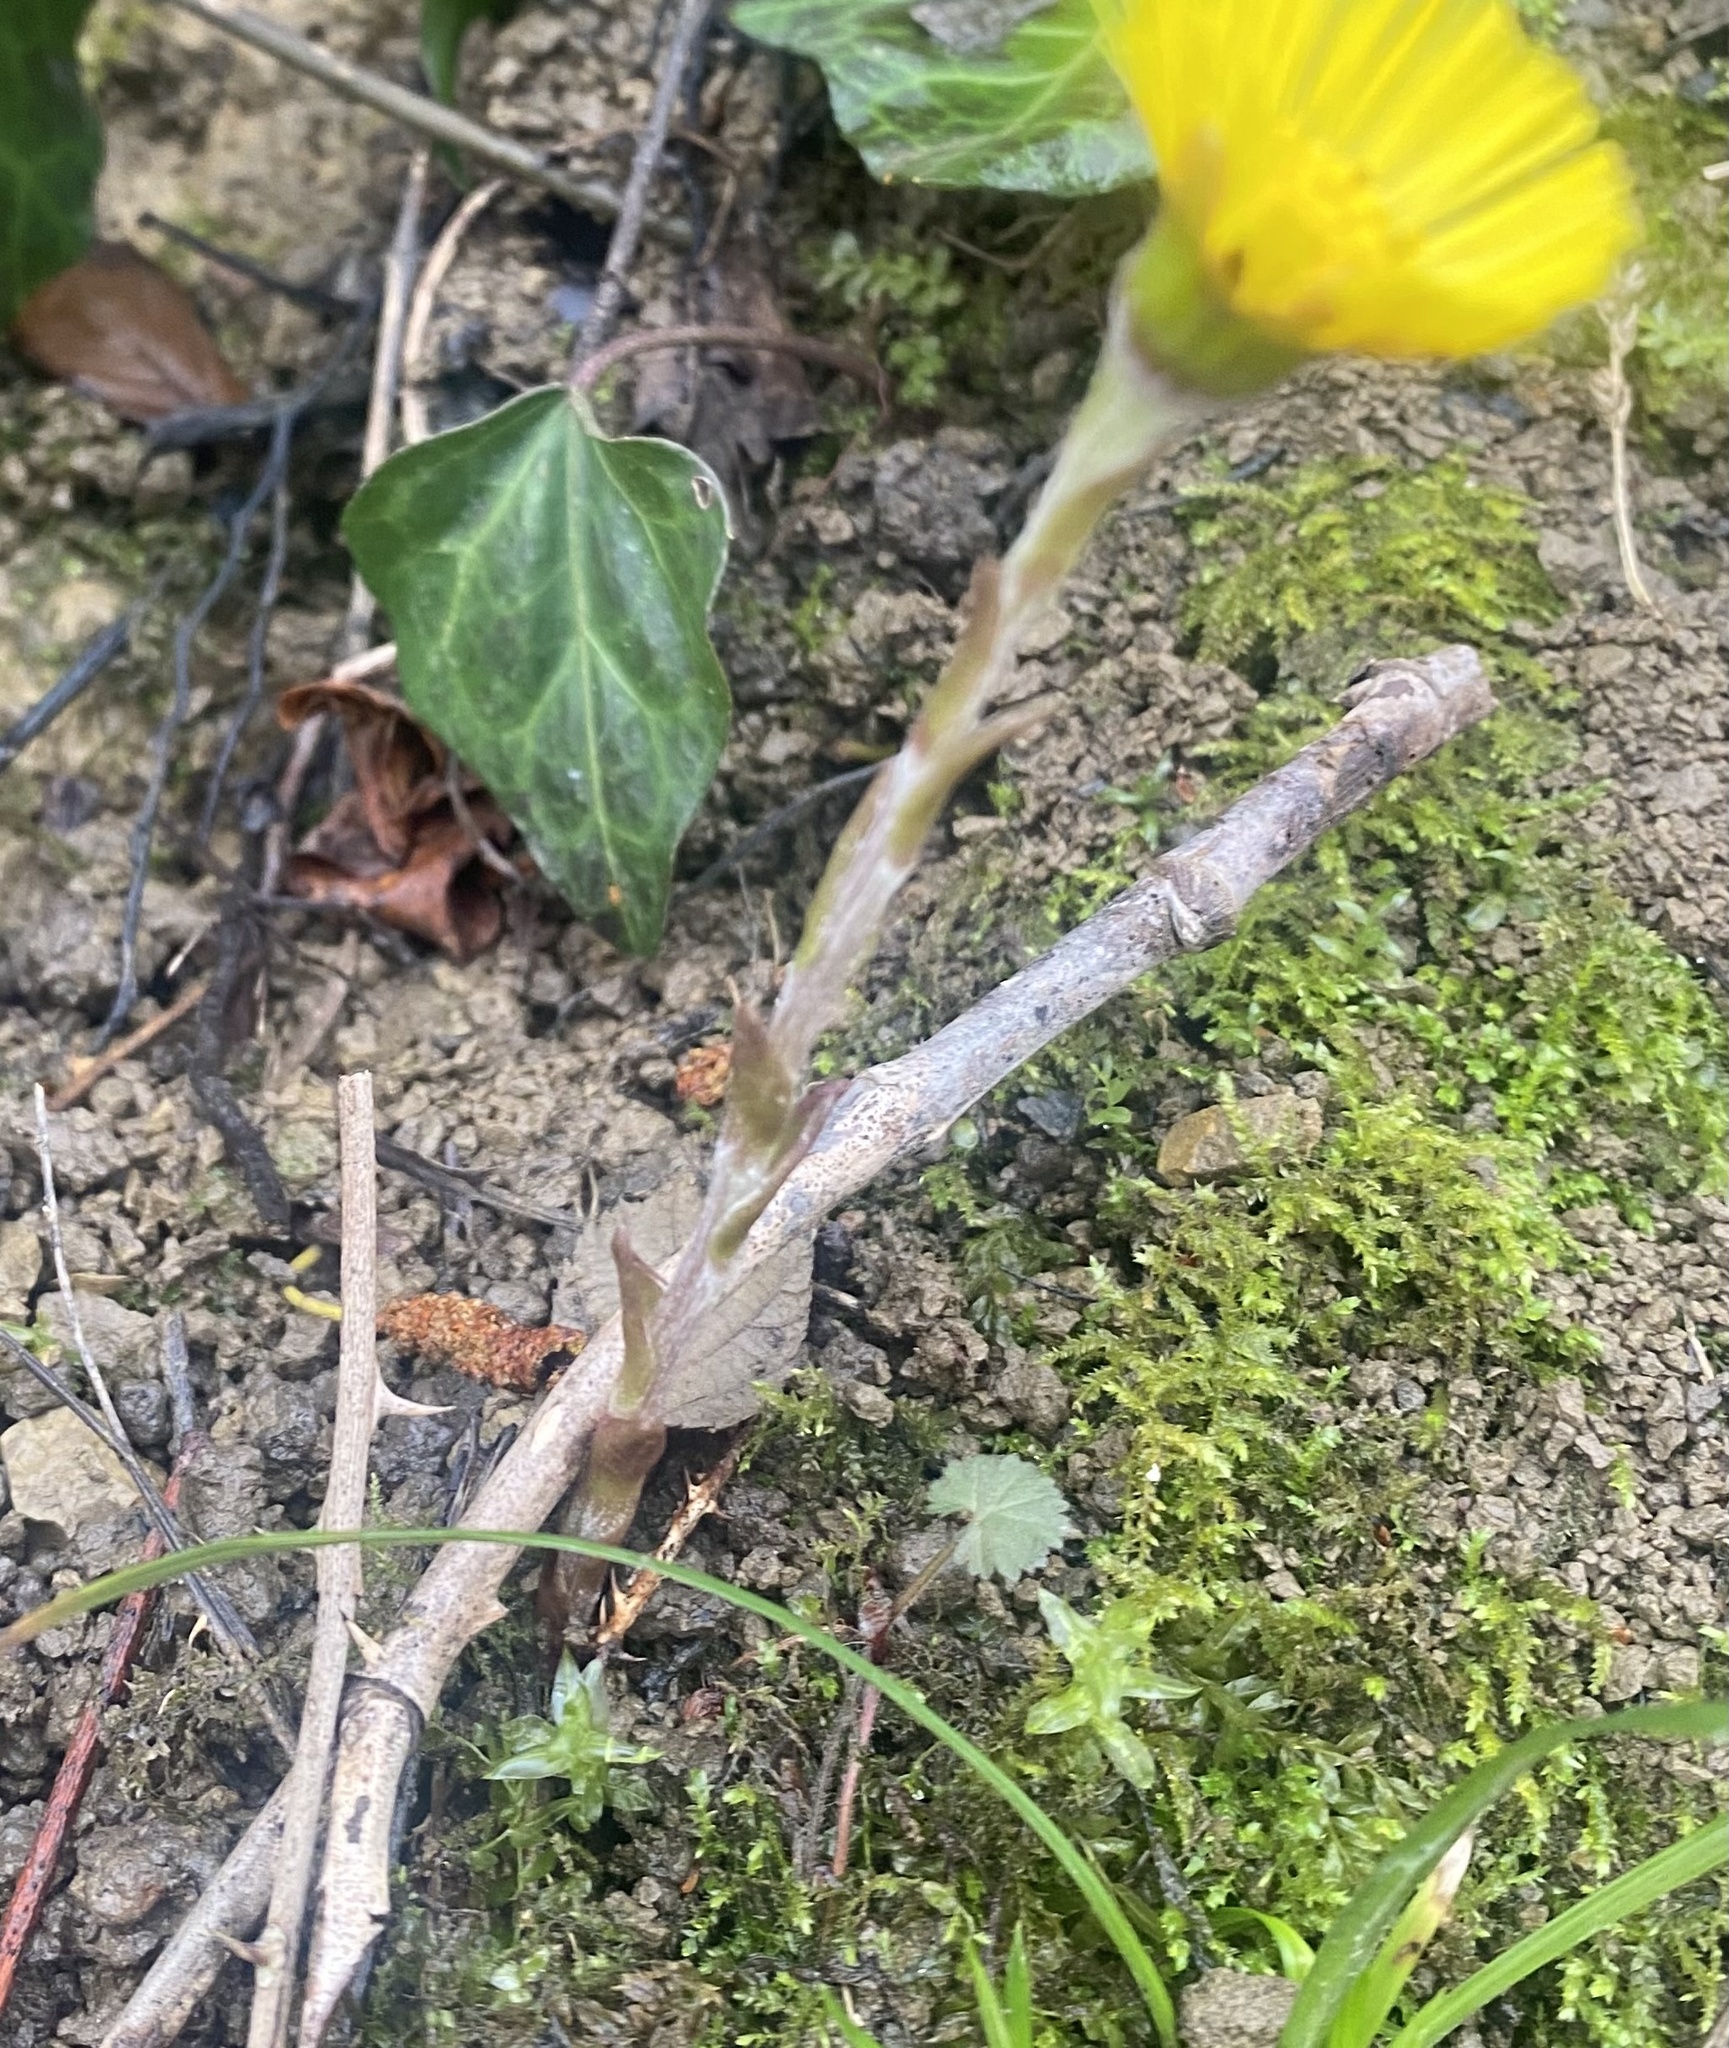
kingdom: Plantae
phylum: Tracheophyta
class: Magnoliopsida
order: Asterales
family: Asteraceae
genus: Tussilago
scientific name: Tussilago farfara
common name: Coltsfoot
